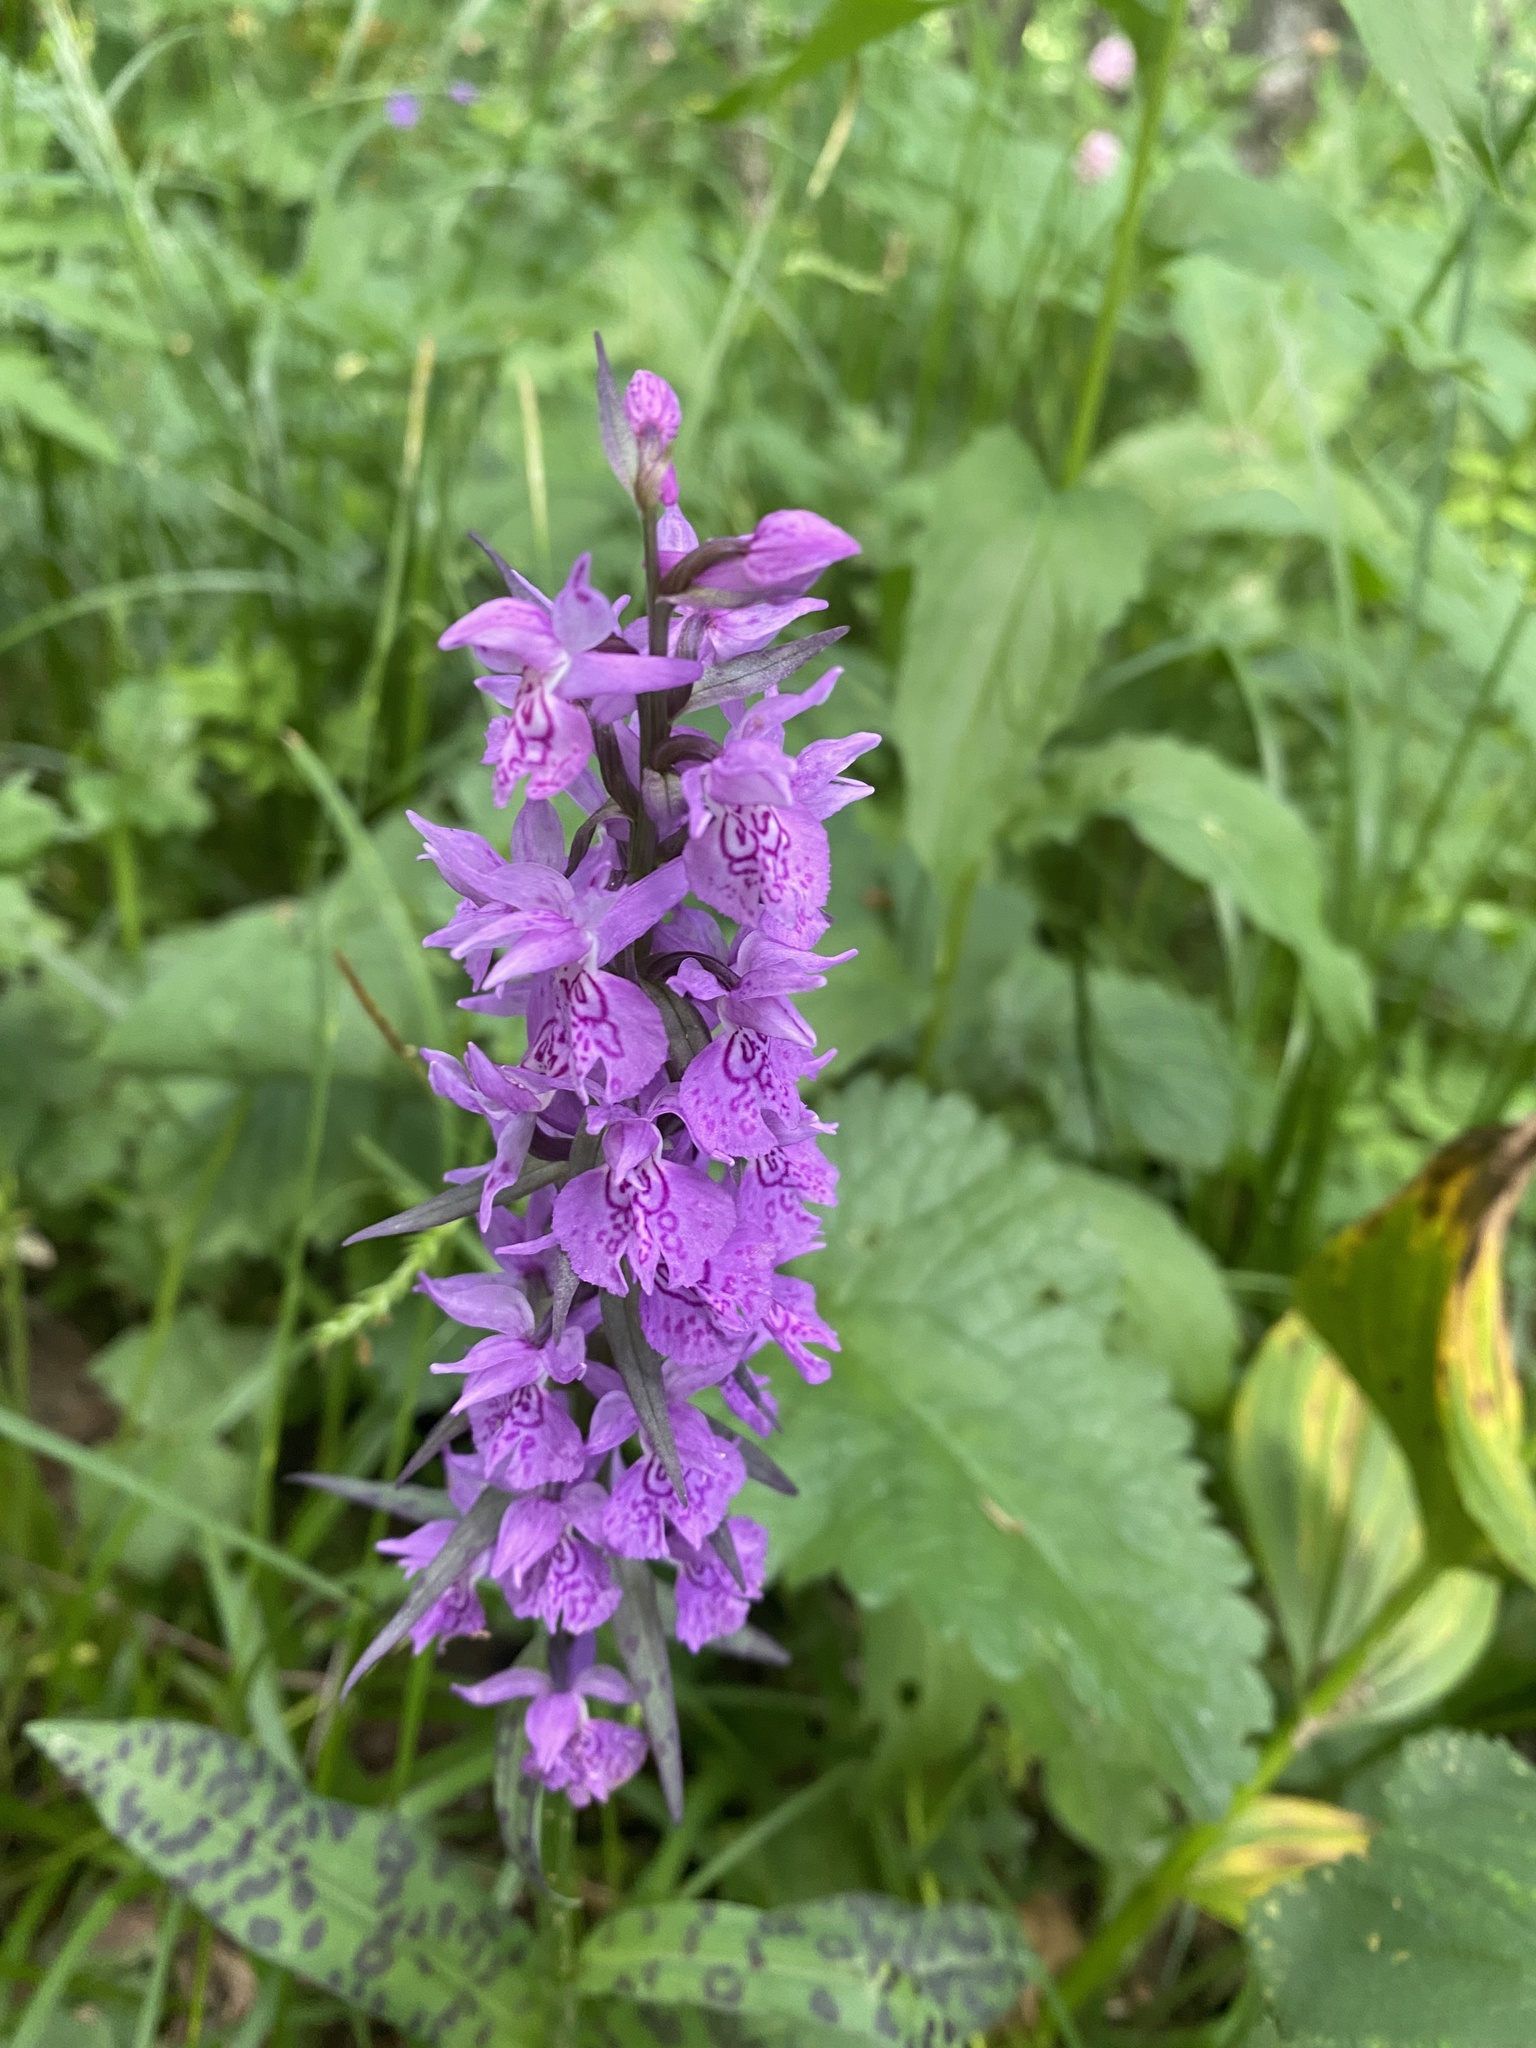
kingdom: Plantae
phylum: Tracheophyta
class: Liliopsida
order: Asparagales
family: Orchidaceae
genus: Dactylorhiza
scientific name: Dactylorhiza urvilleana
